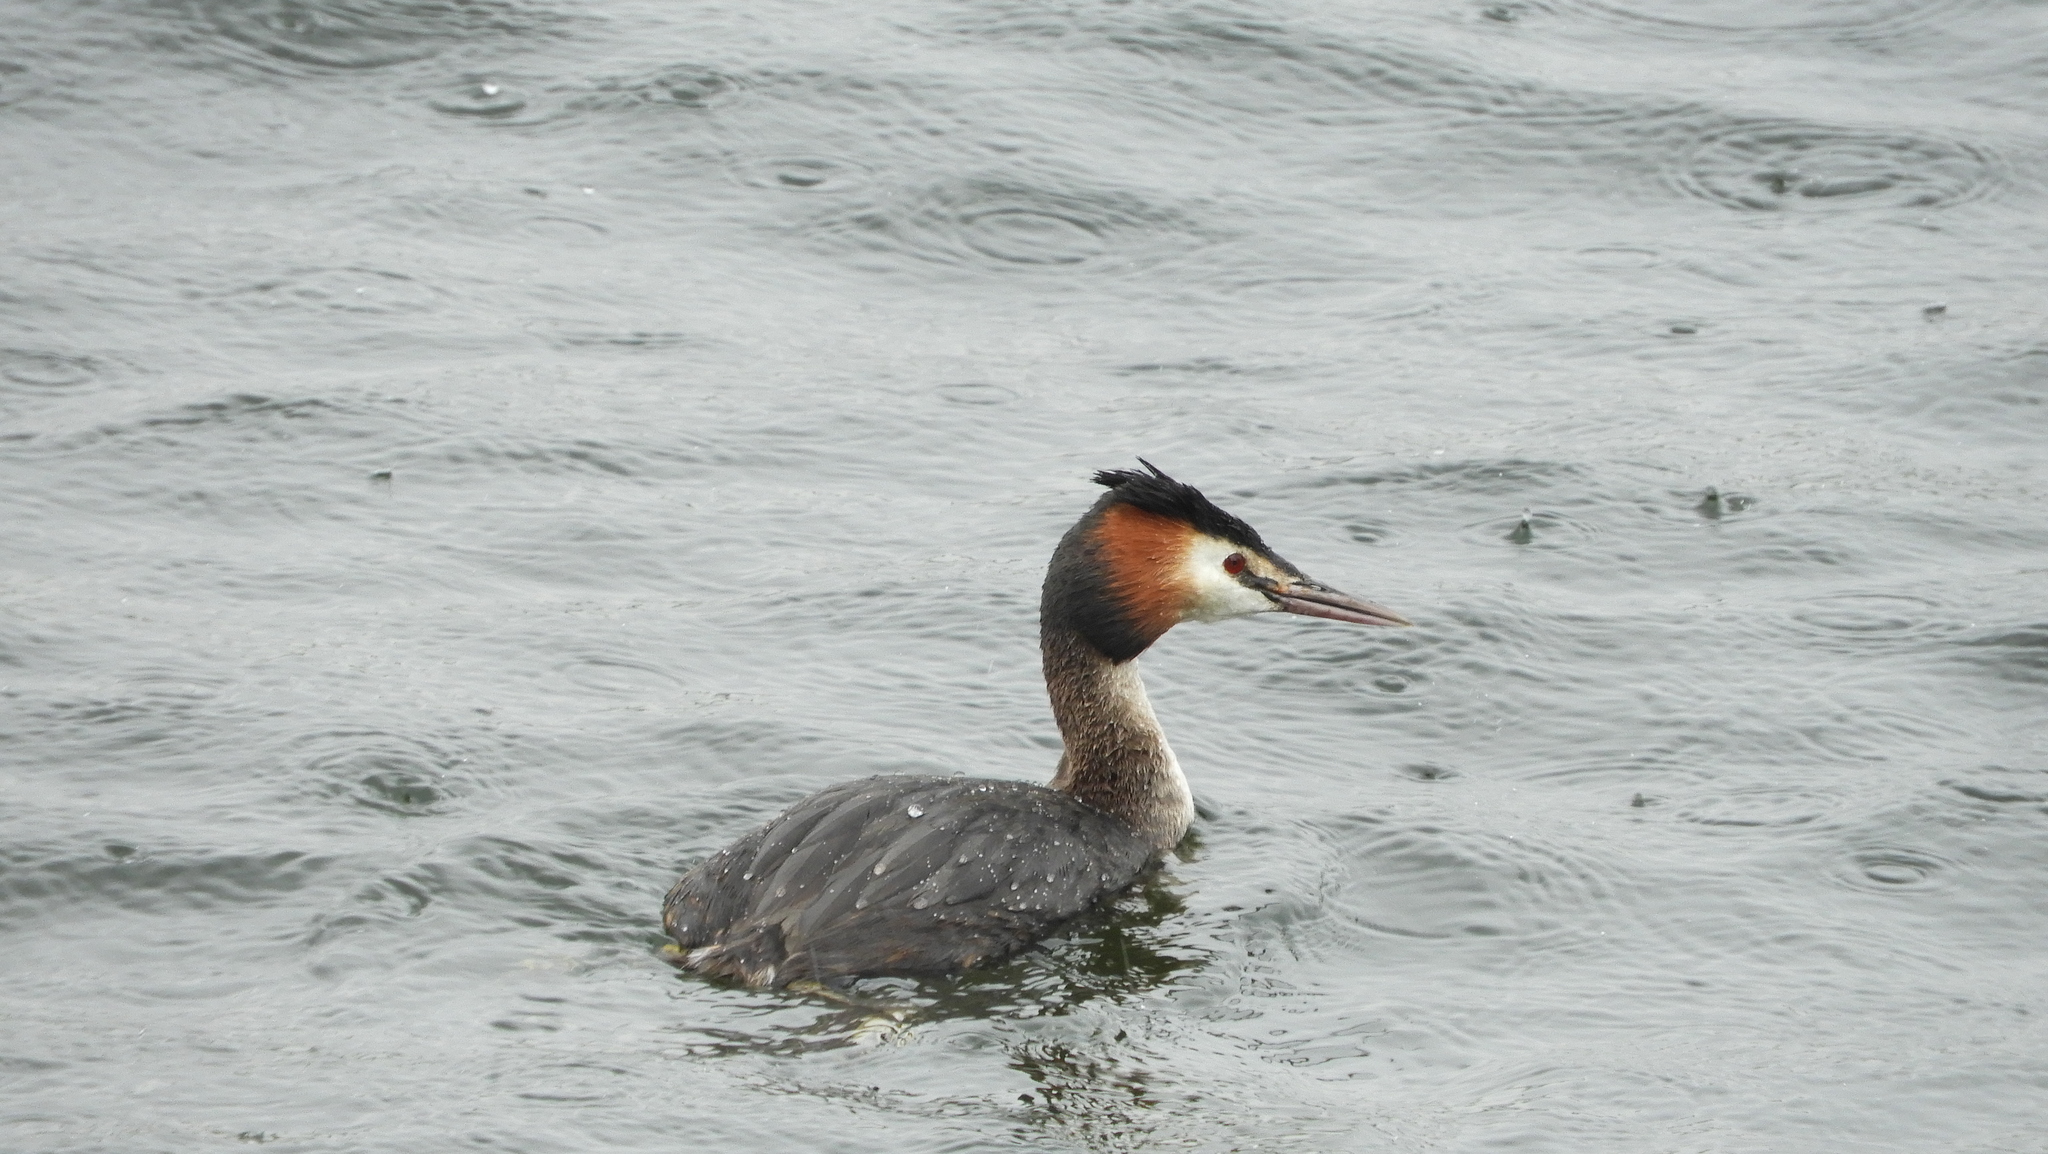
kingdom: Animalia
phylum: Chordata
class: Aves
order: Podicipediformes
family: Podicipedidae
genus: Podiceps
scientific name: Podiceps cristatus
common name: Great crested grebe
